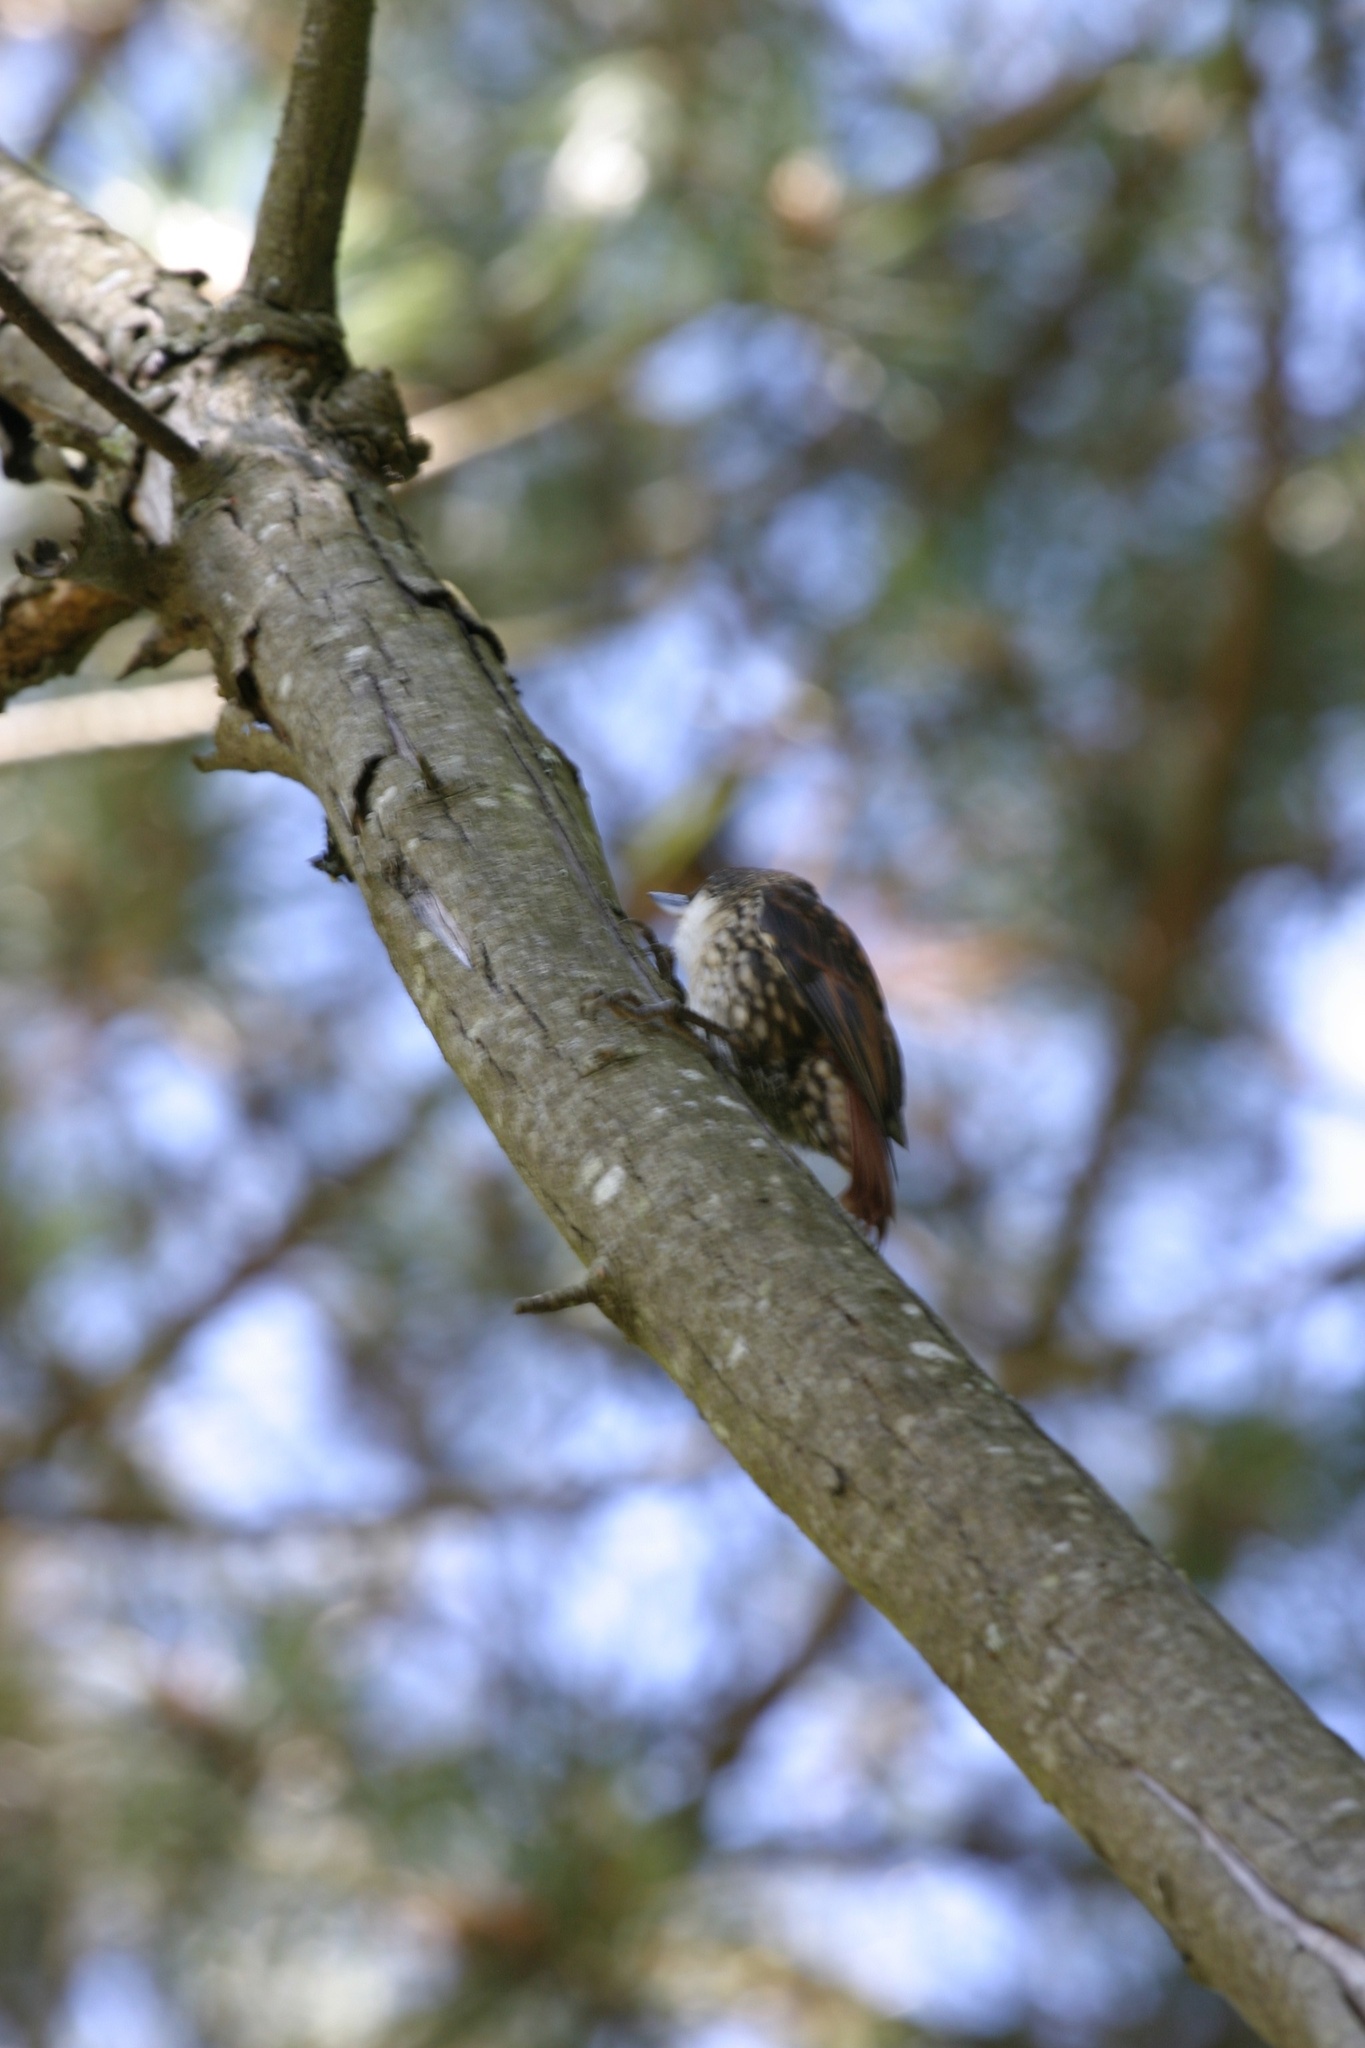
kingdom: Animalia
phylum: Chordata
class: Aves
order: Passeriformes
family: Furnariidae
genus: Pygarrhichas
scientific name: Pygarrhichas albogularis
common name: White-throated treerunner
